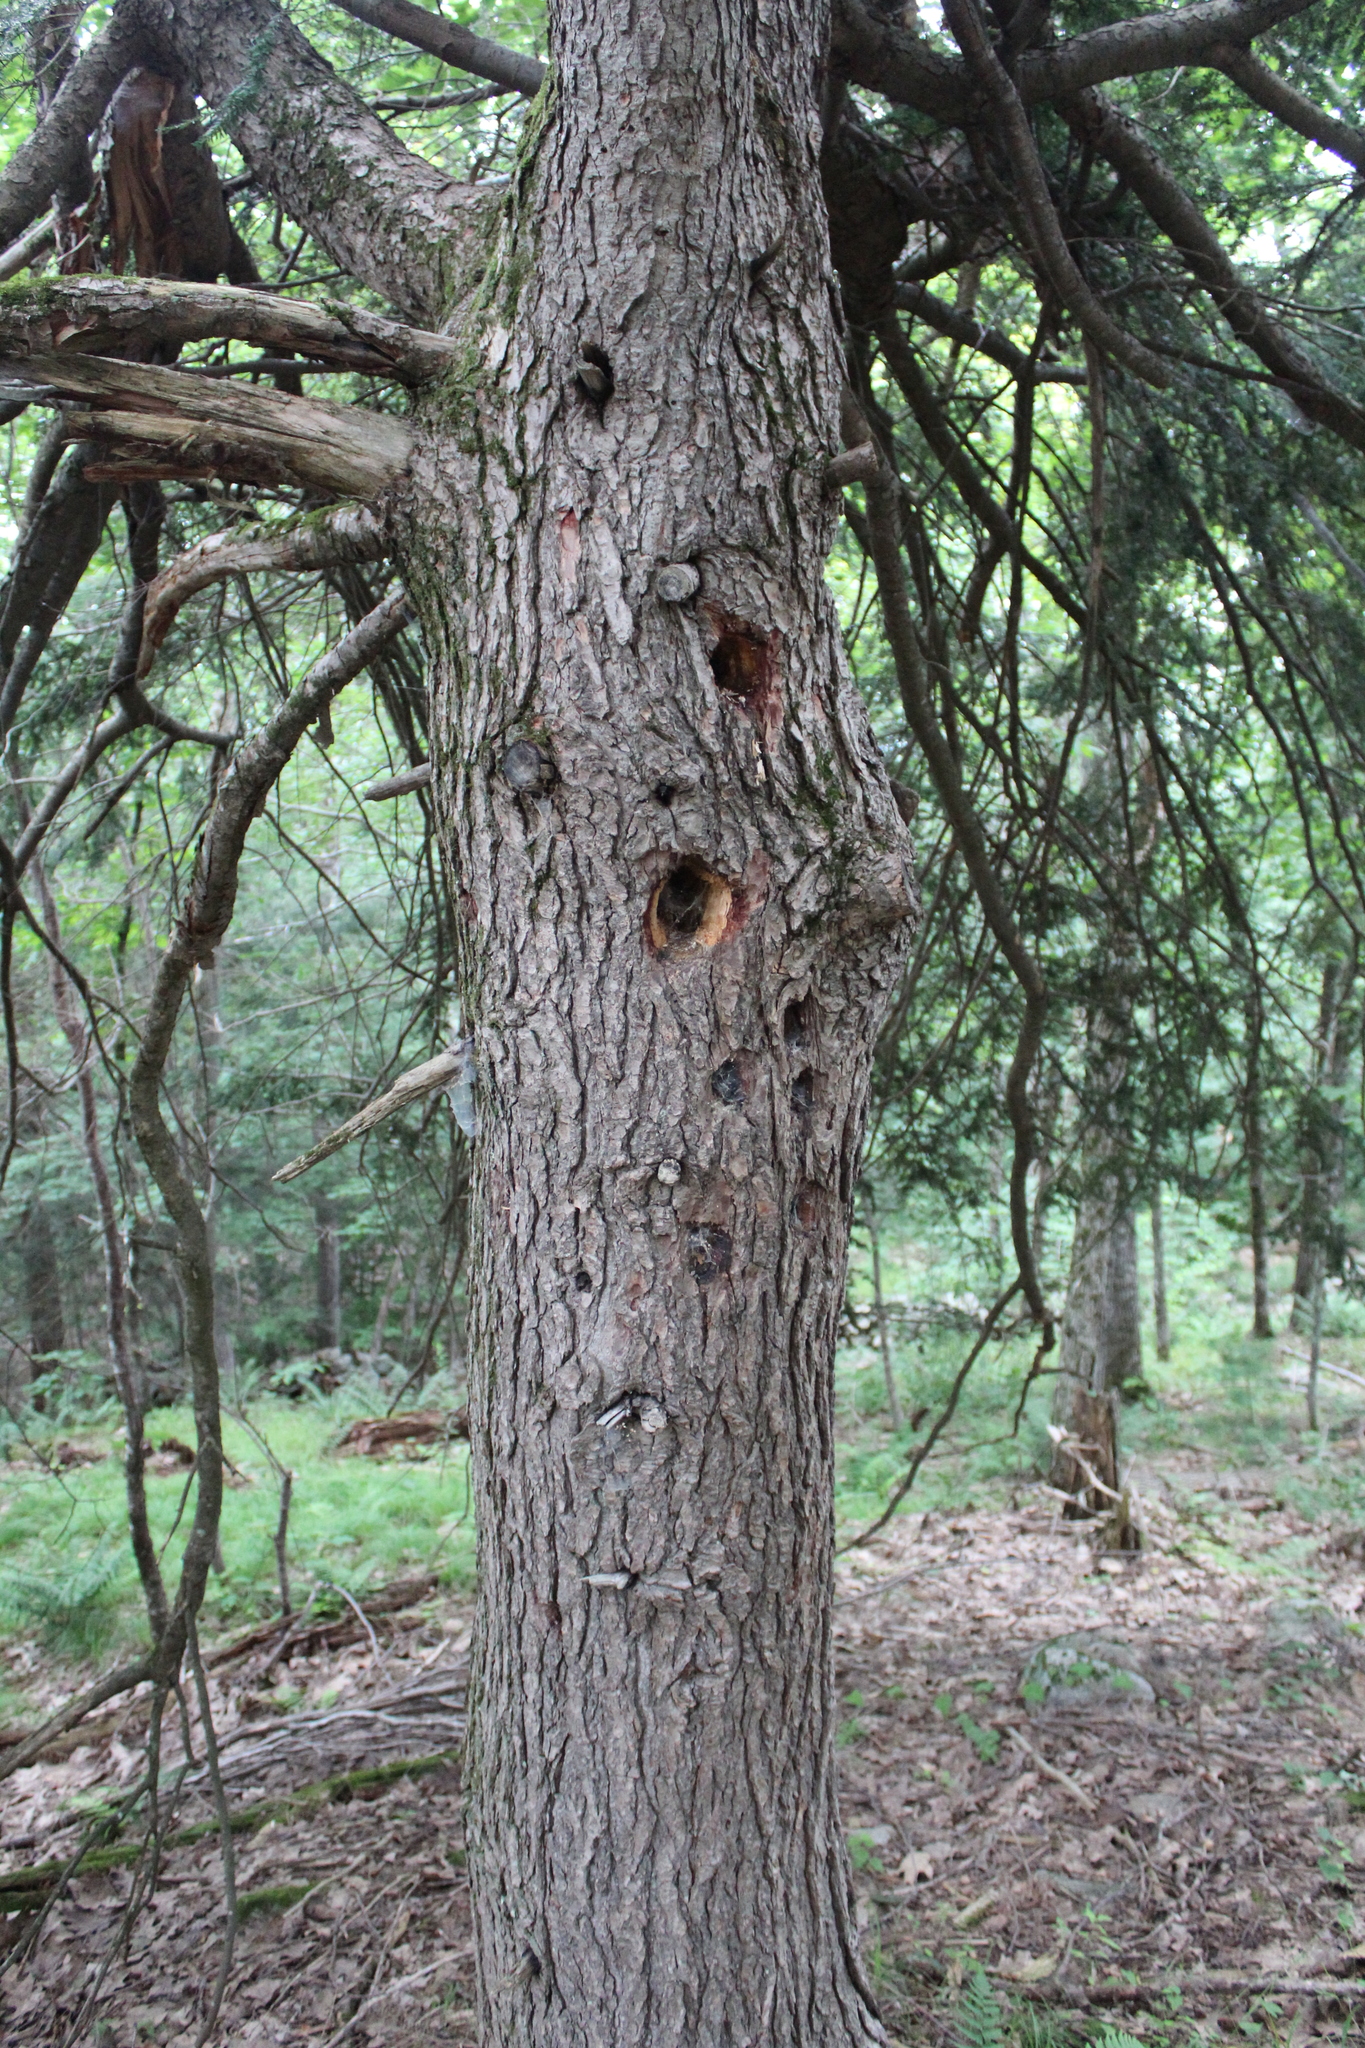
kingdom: Plantae
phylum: Tracheophyta
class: Pinopsida
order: Pinales
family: Pinaceae
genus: Tsuga
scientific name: Tsuga canadensis
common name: Eastern hemlock
